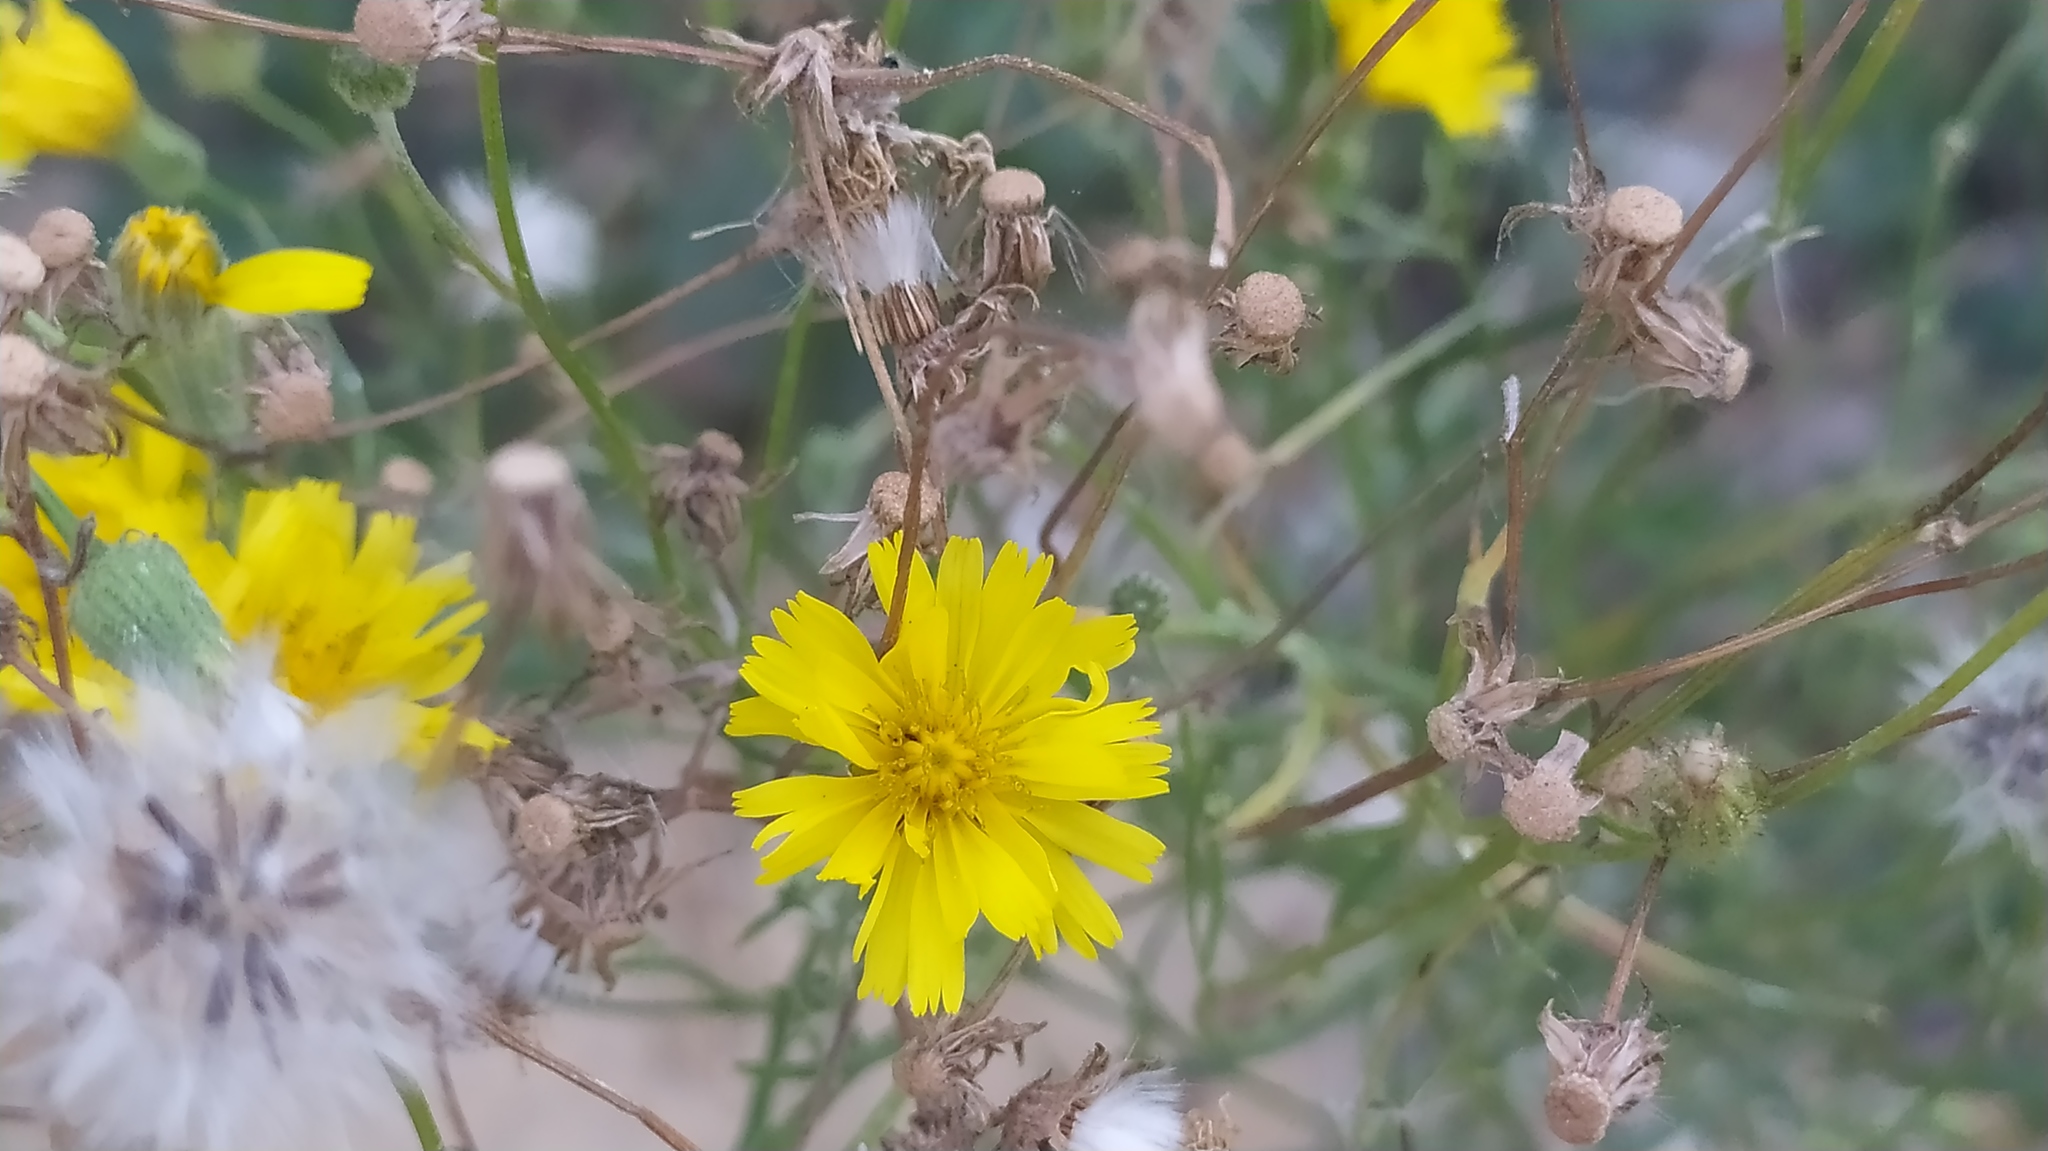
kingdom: Plantae
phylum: Tracheophyta
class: Magnoliopsida
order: Asterales
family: Asteraceae
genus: Crepis
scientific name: Crepis tectorum
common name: Narrow-leaved hawk's-beard
